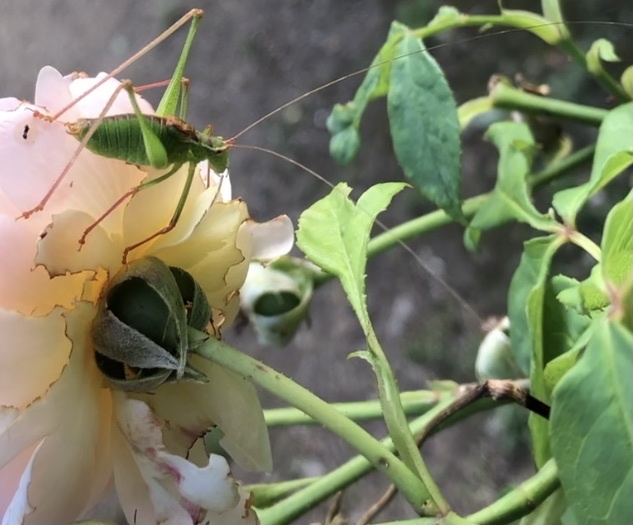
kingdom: Animalia
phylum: Arthropoda
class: Insecta
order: Orthoptera
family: Tettigoniidae
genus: Leptophyes
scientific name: Leptophyes punctatissima
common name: Speckled bush-cricket
